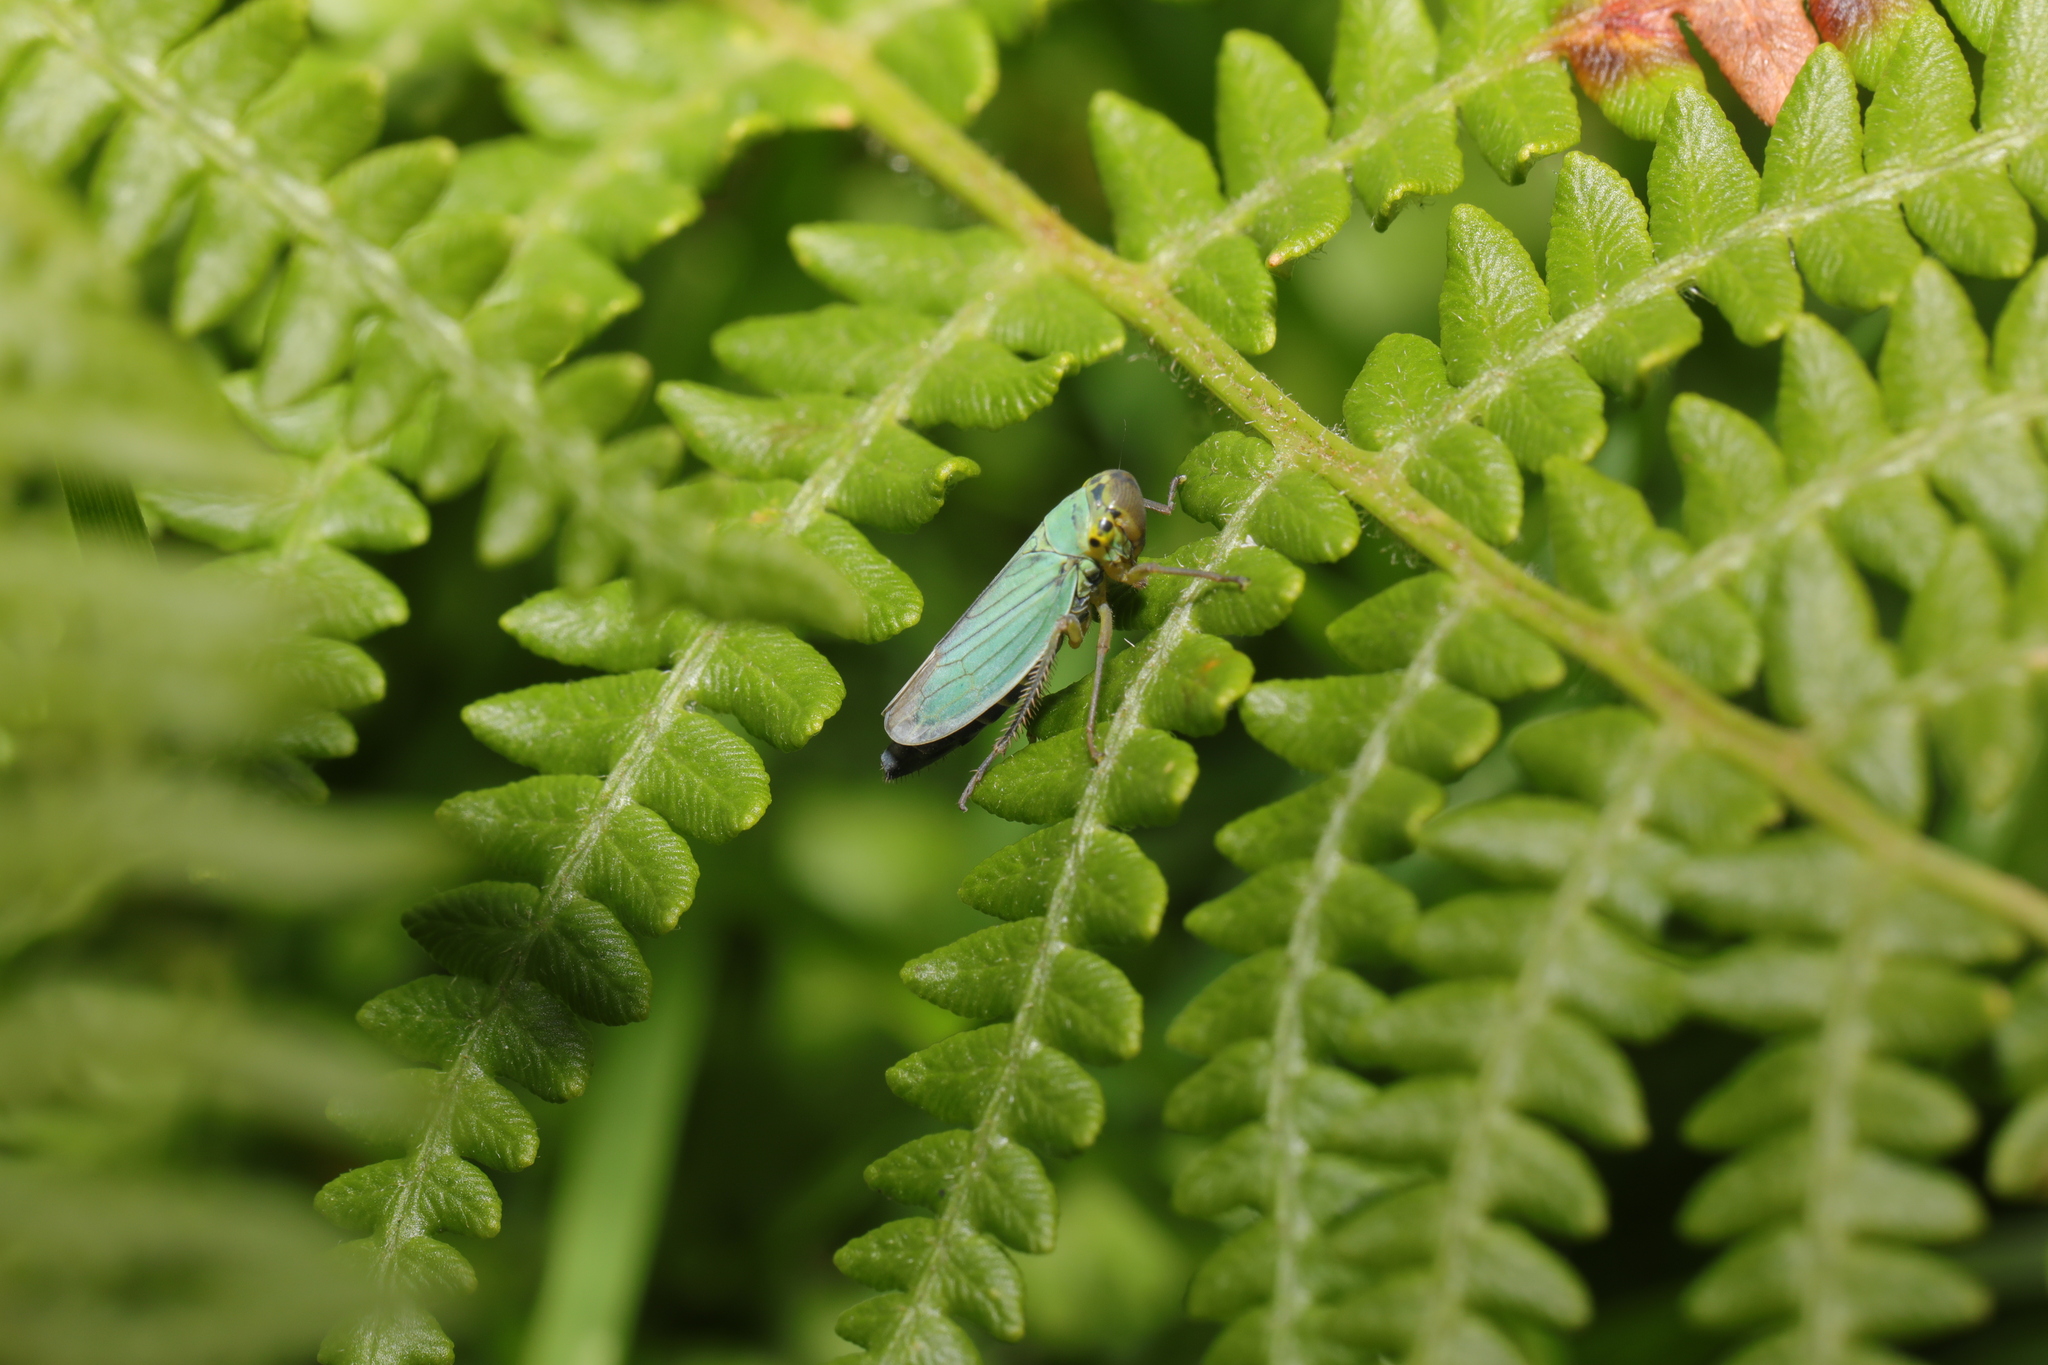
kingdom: Animalia
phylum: Arthropoda
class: Insecta
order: Hemiptera
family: Cicadellidae
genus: Cicadella
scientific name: Cicadella viridis
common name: Leafhopper
